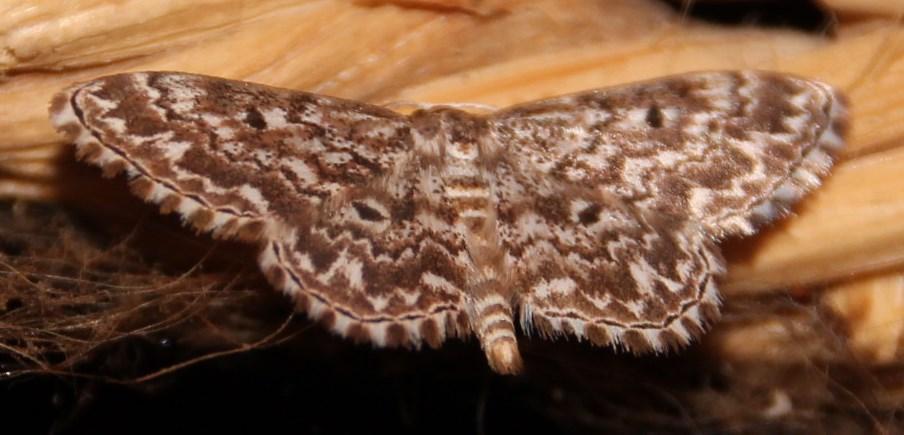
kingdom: Animalia
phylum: Arthropoda
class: Insecta
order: Lepidoptera
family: Geometridae
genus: Scopula
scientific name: Scopula inscriptata
